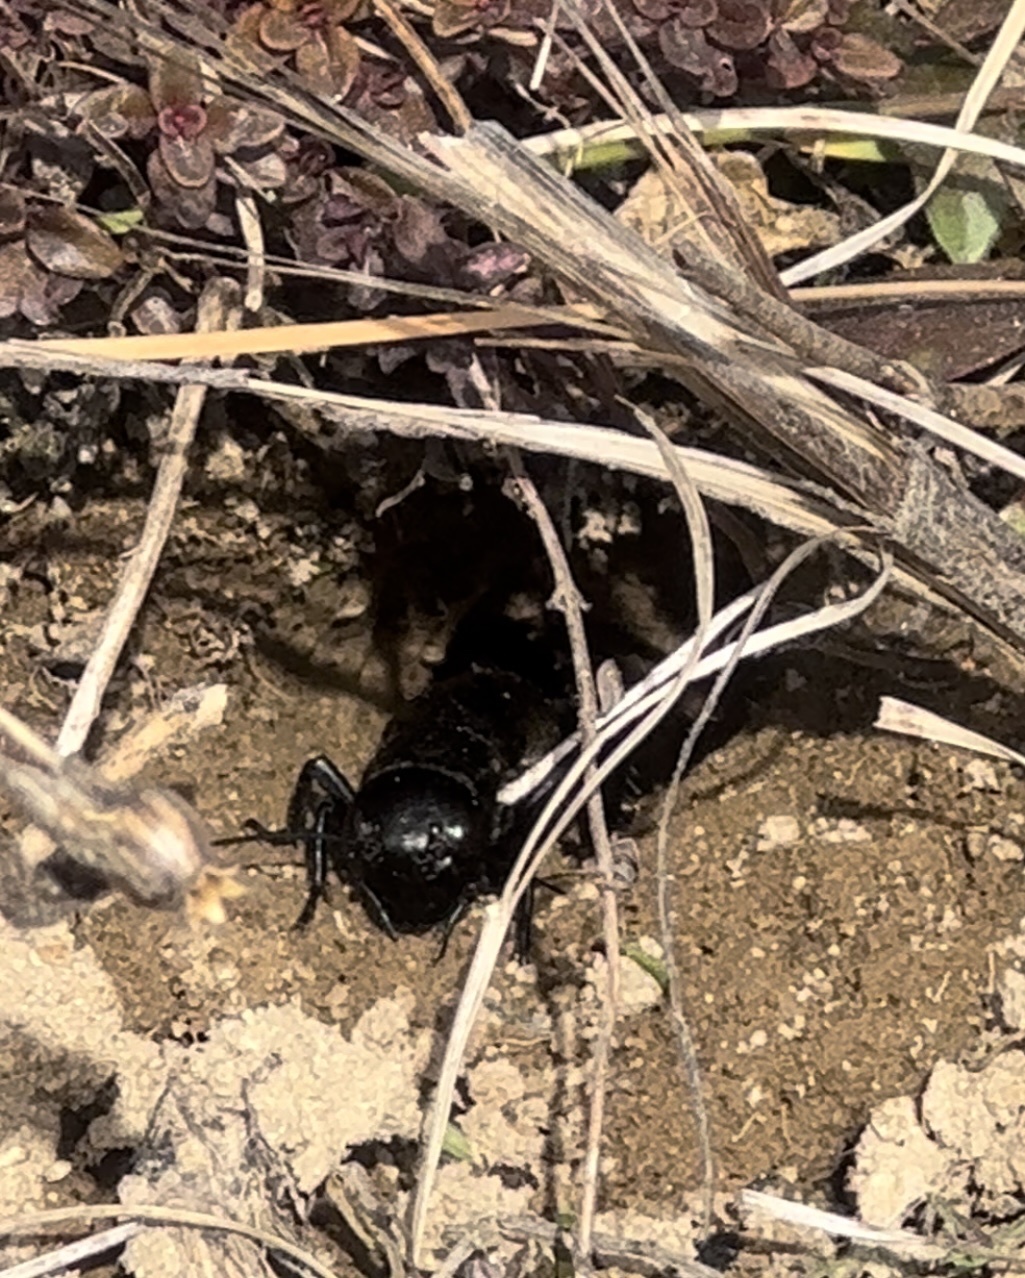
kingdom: Animalia
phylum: Arthropoda
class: Insecta
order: Orthoptera
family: Gryllidae
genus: Gryllus
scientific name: Gryllus campestris
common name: Field cricket
